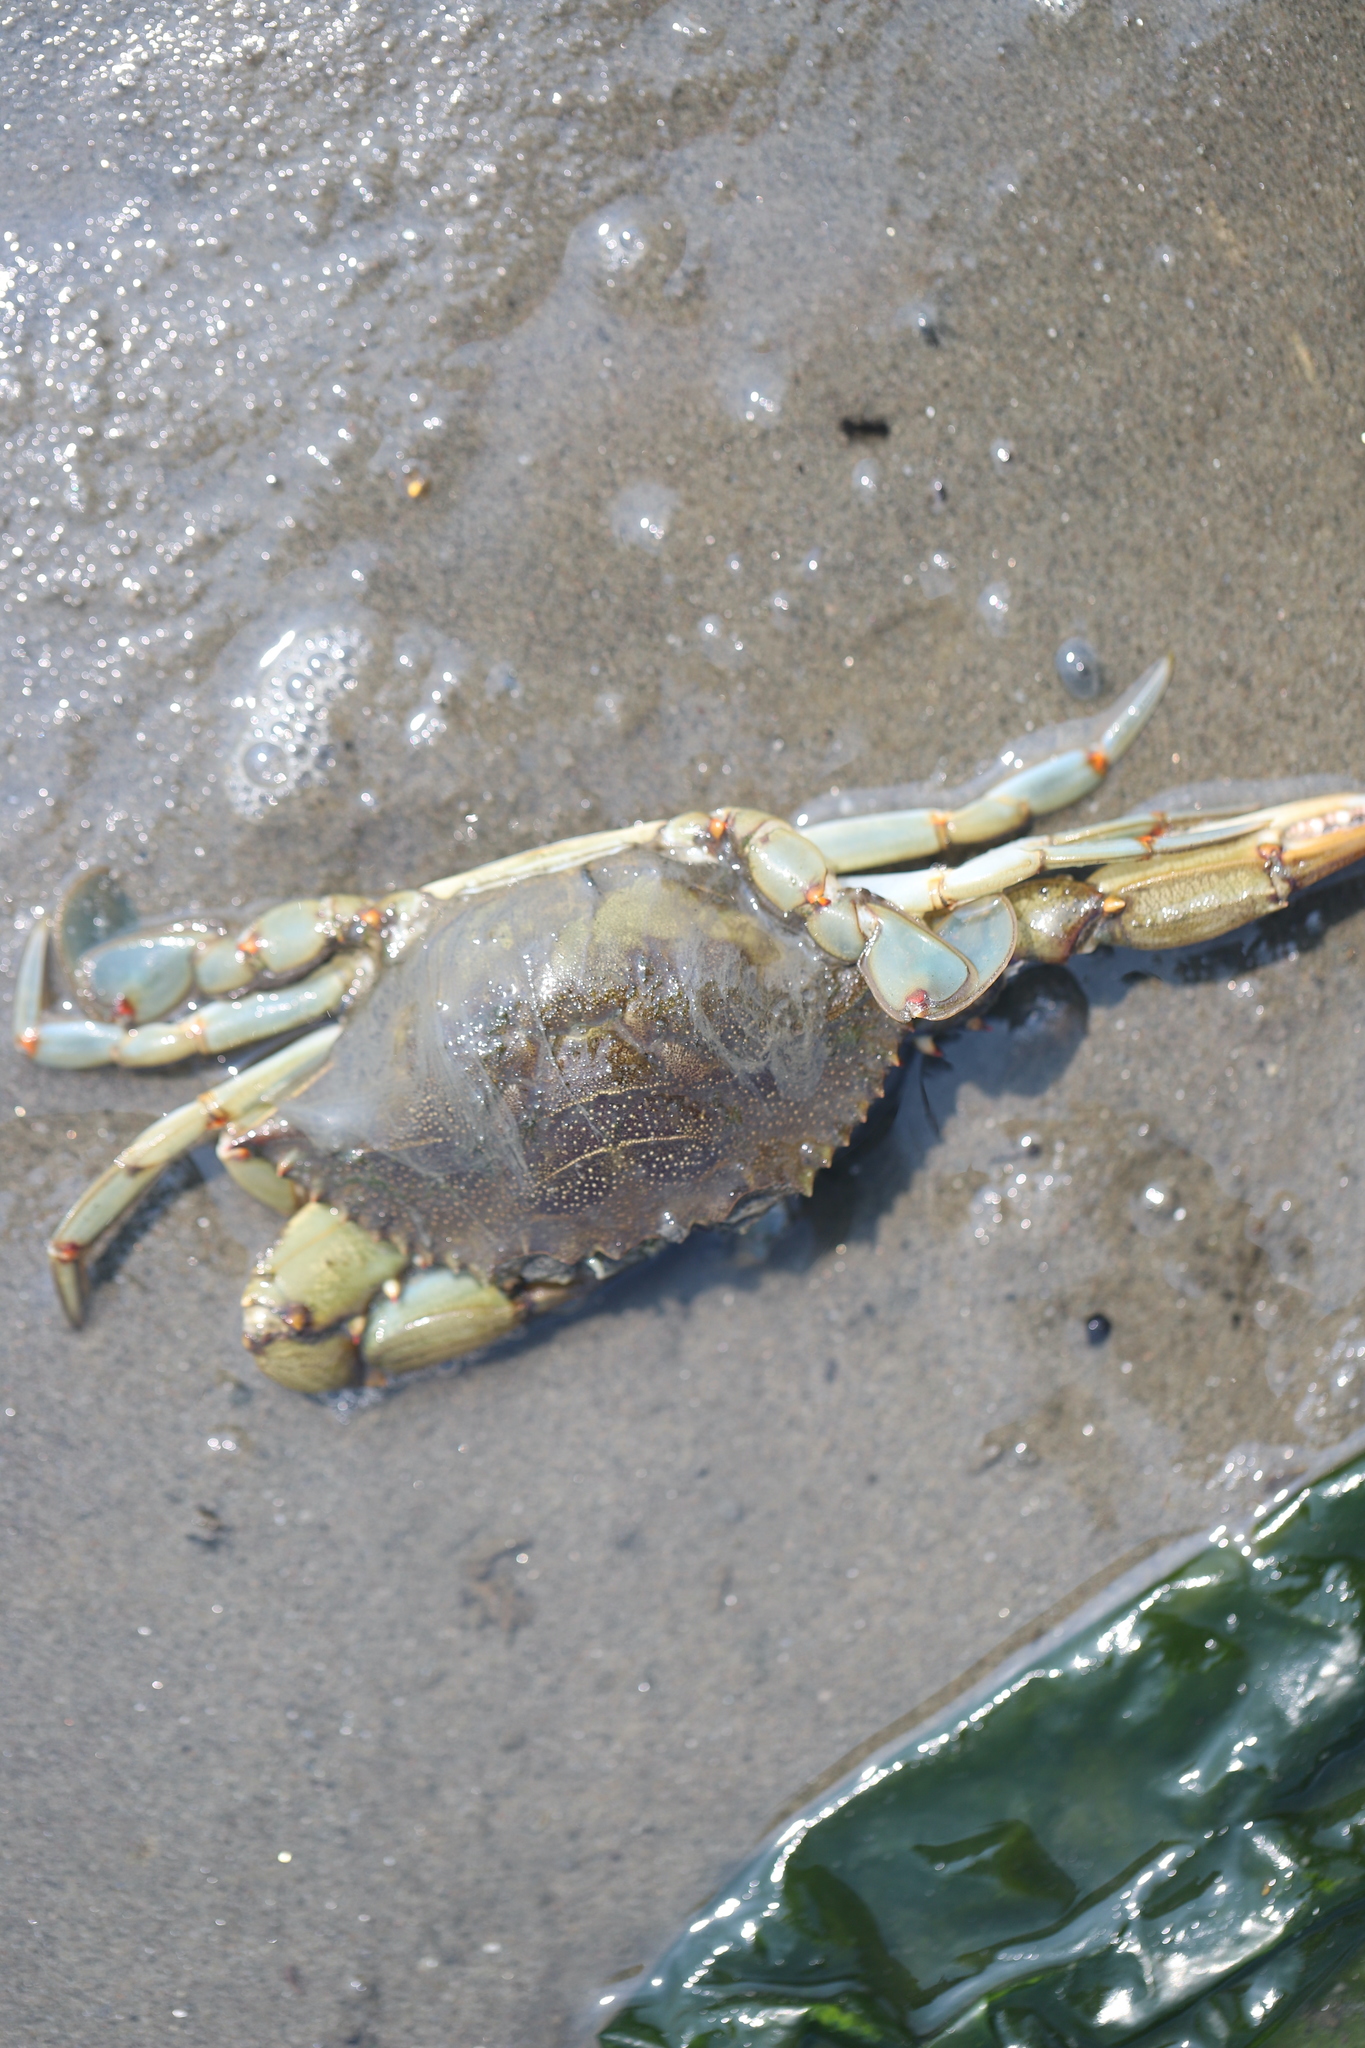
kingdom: Animalia
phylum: Arthropoda
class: Malacostraca
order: Decapoda
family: Portunidae
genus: Callinectes
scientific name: Callinectes sapidus
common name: Blue crab
